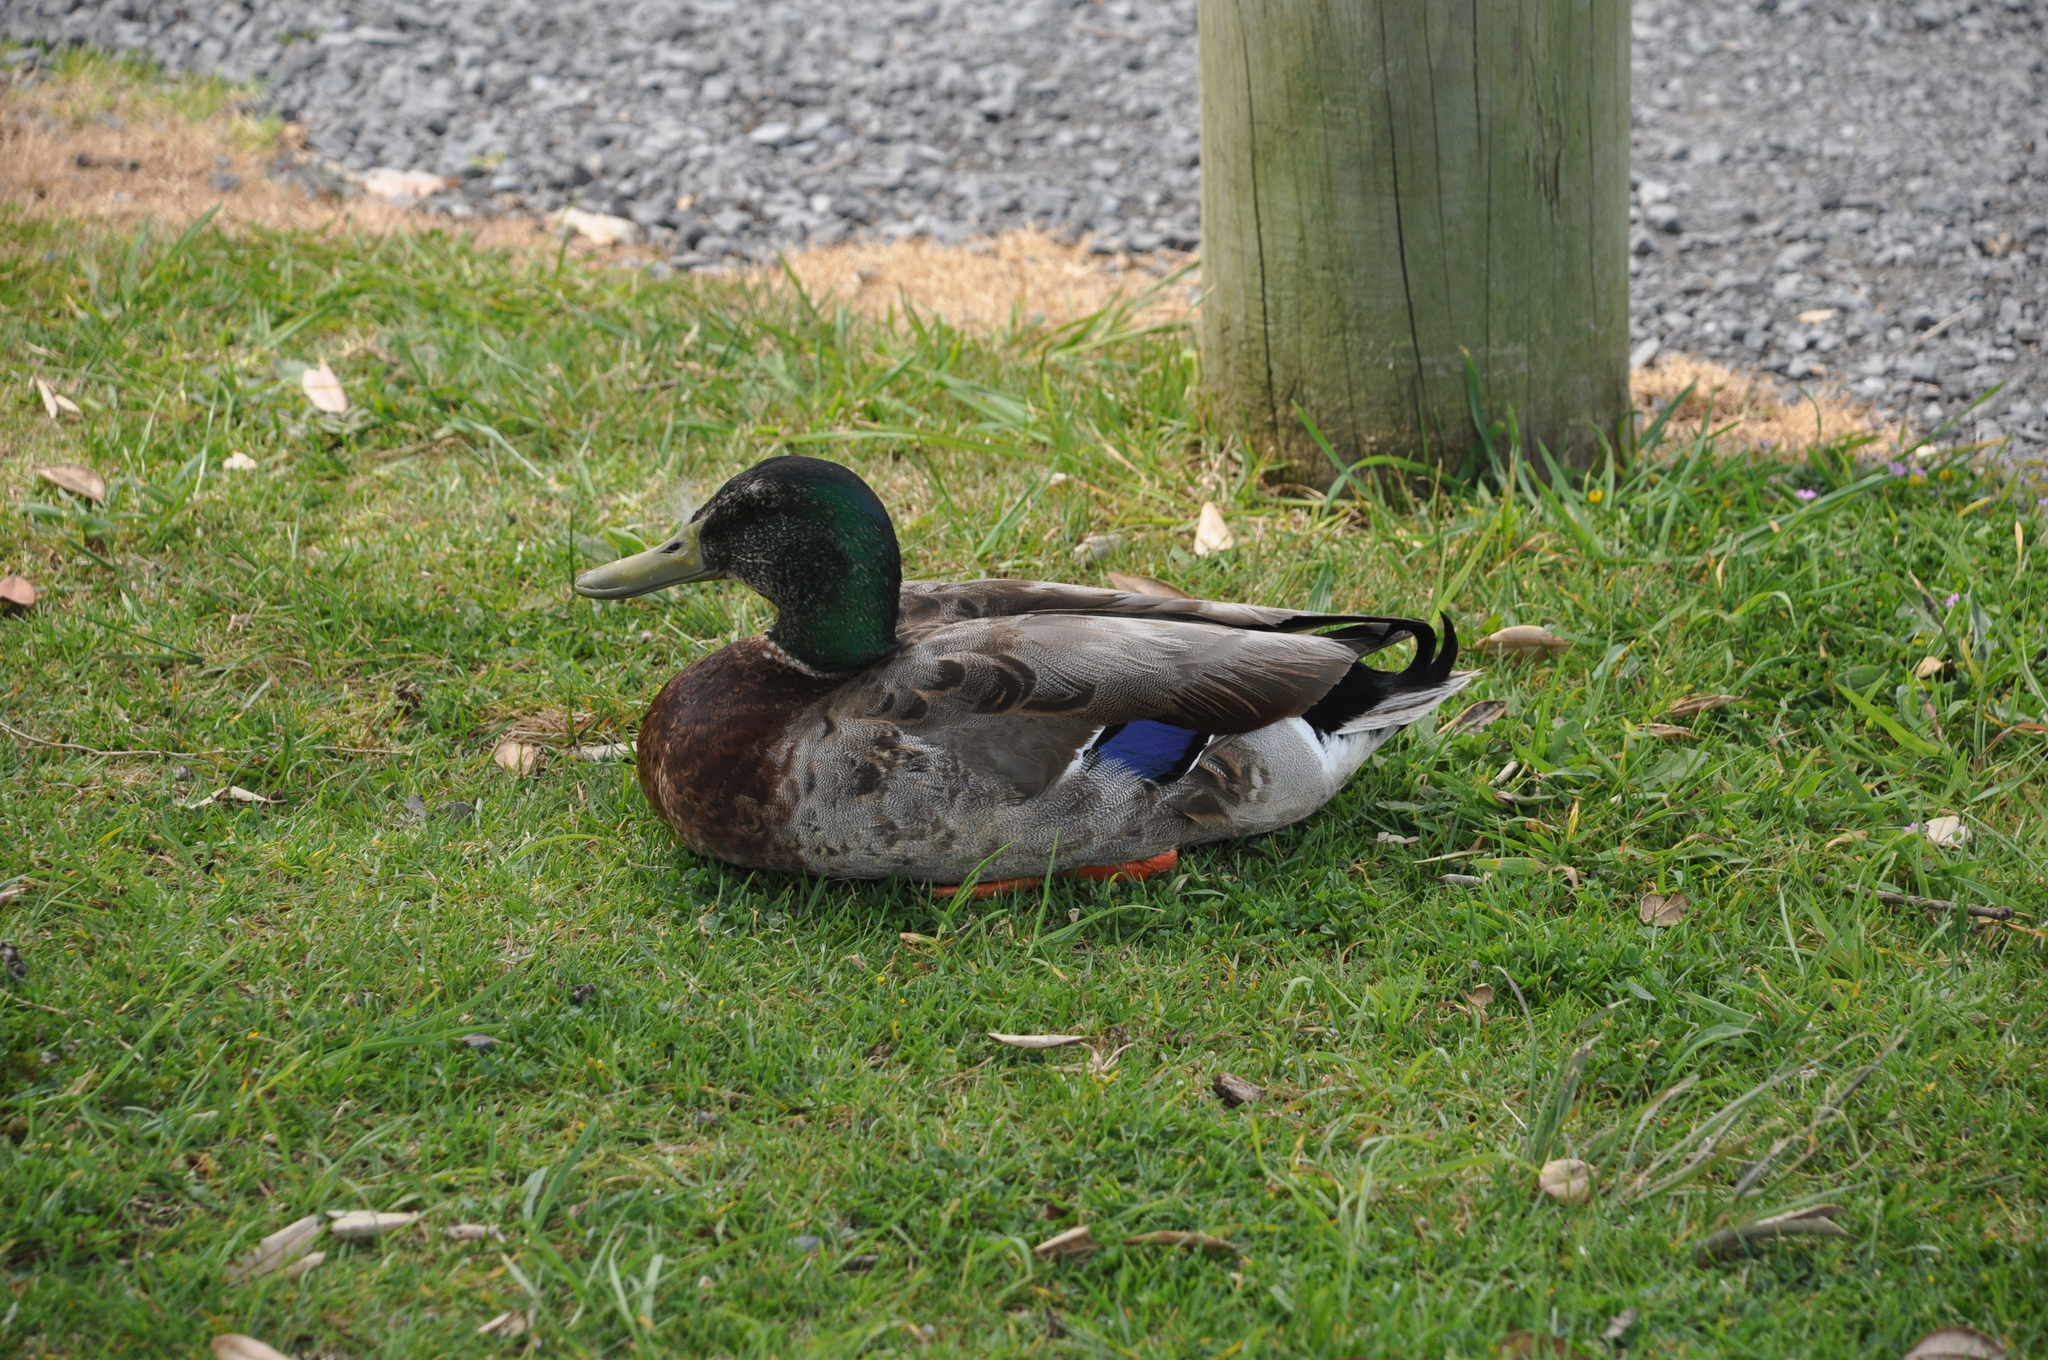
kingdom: Animalia
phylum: Chordata
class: Aves
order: Anseriformes
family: Anatidae
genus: Anas
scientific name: Anas platyrhynchos
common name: Mallard
